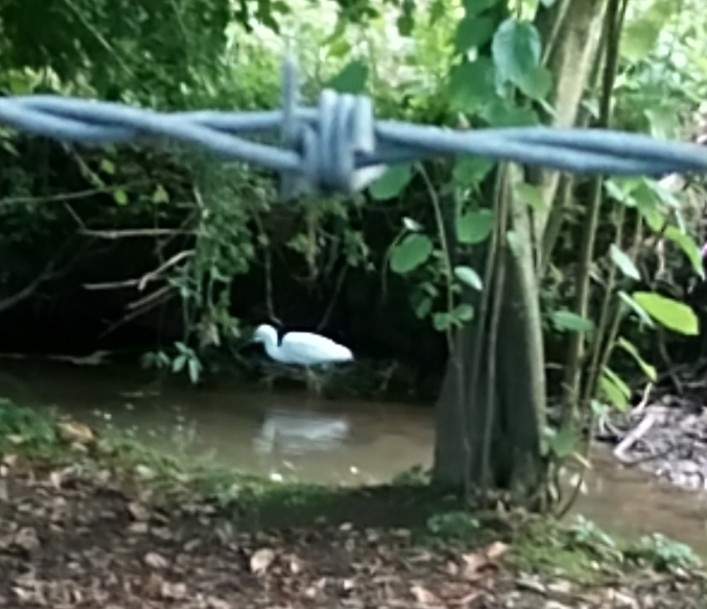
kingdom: Animalia
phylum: Chordata
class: Aves
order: Pelecaniformes
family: Ardeidae
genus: Egretta
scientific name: Egretta garzetta
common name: Little egret
